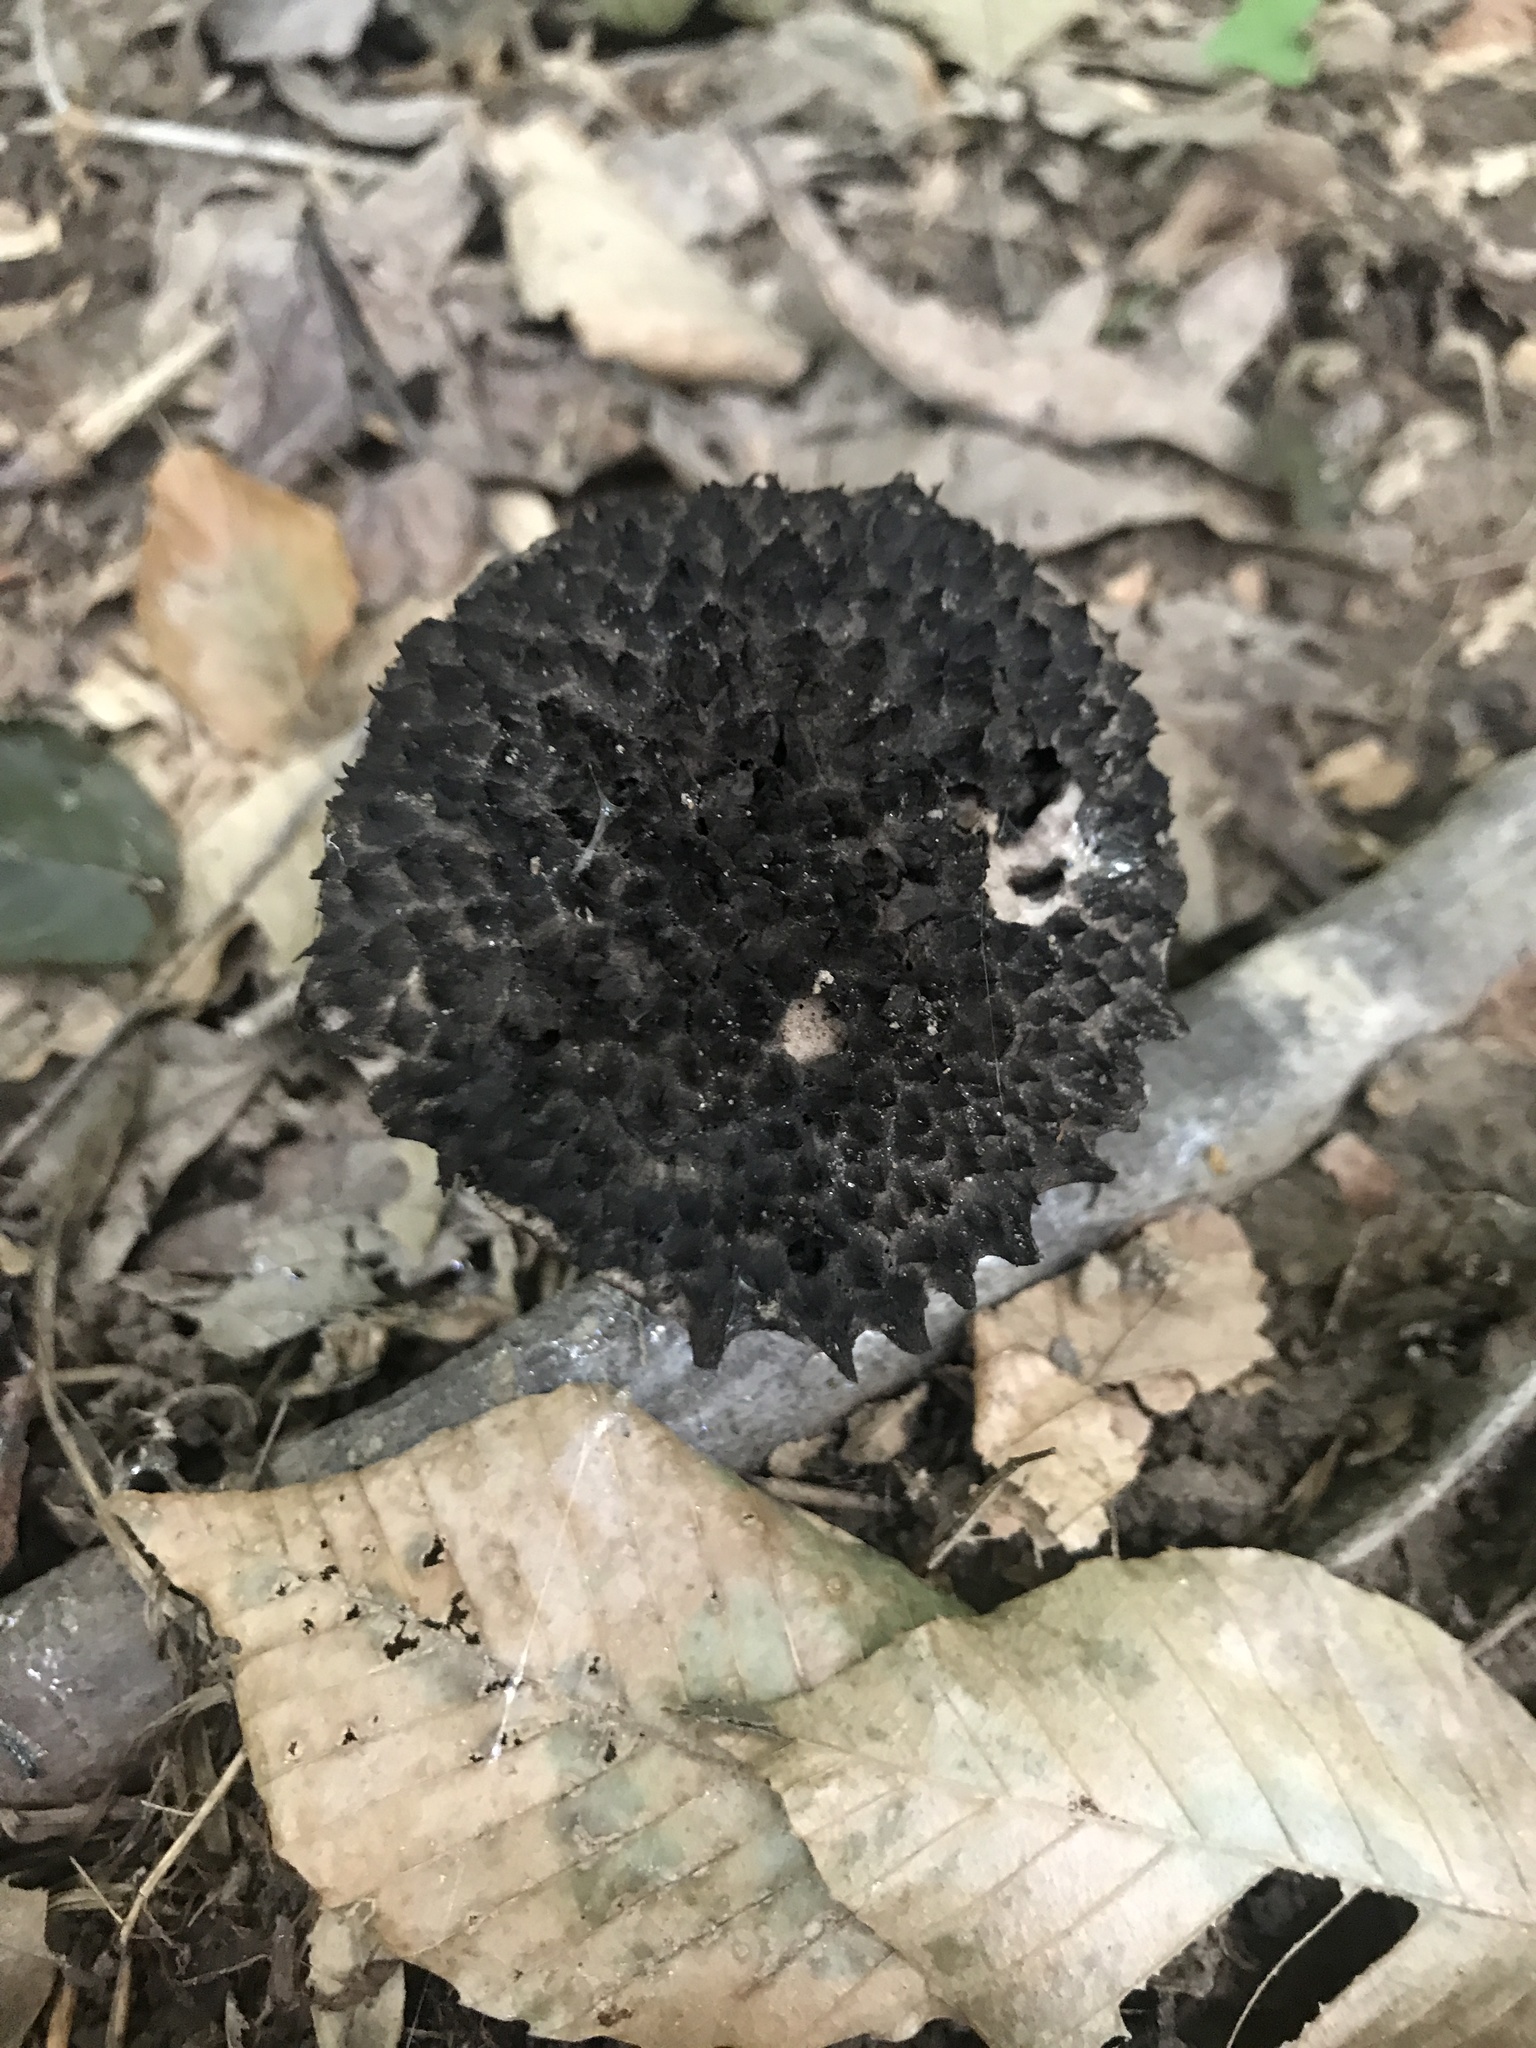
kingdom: Fungi
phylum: Basidiomycota
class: Agaricomycetes
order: Boletales
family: Boletaceae
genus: Strobilomyces
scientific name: Strobilomyces confusus
